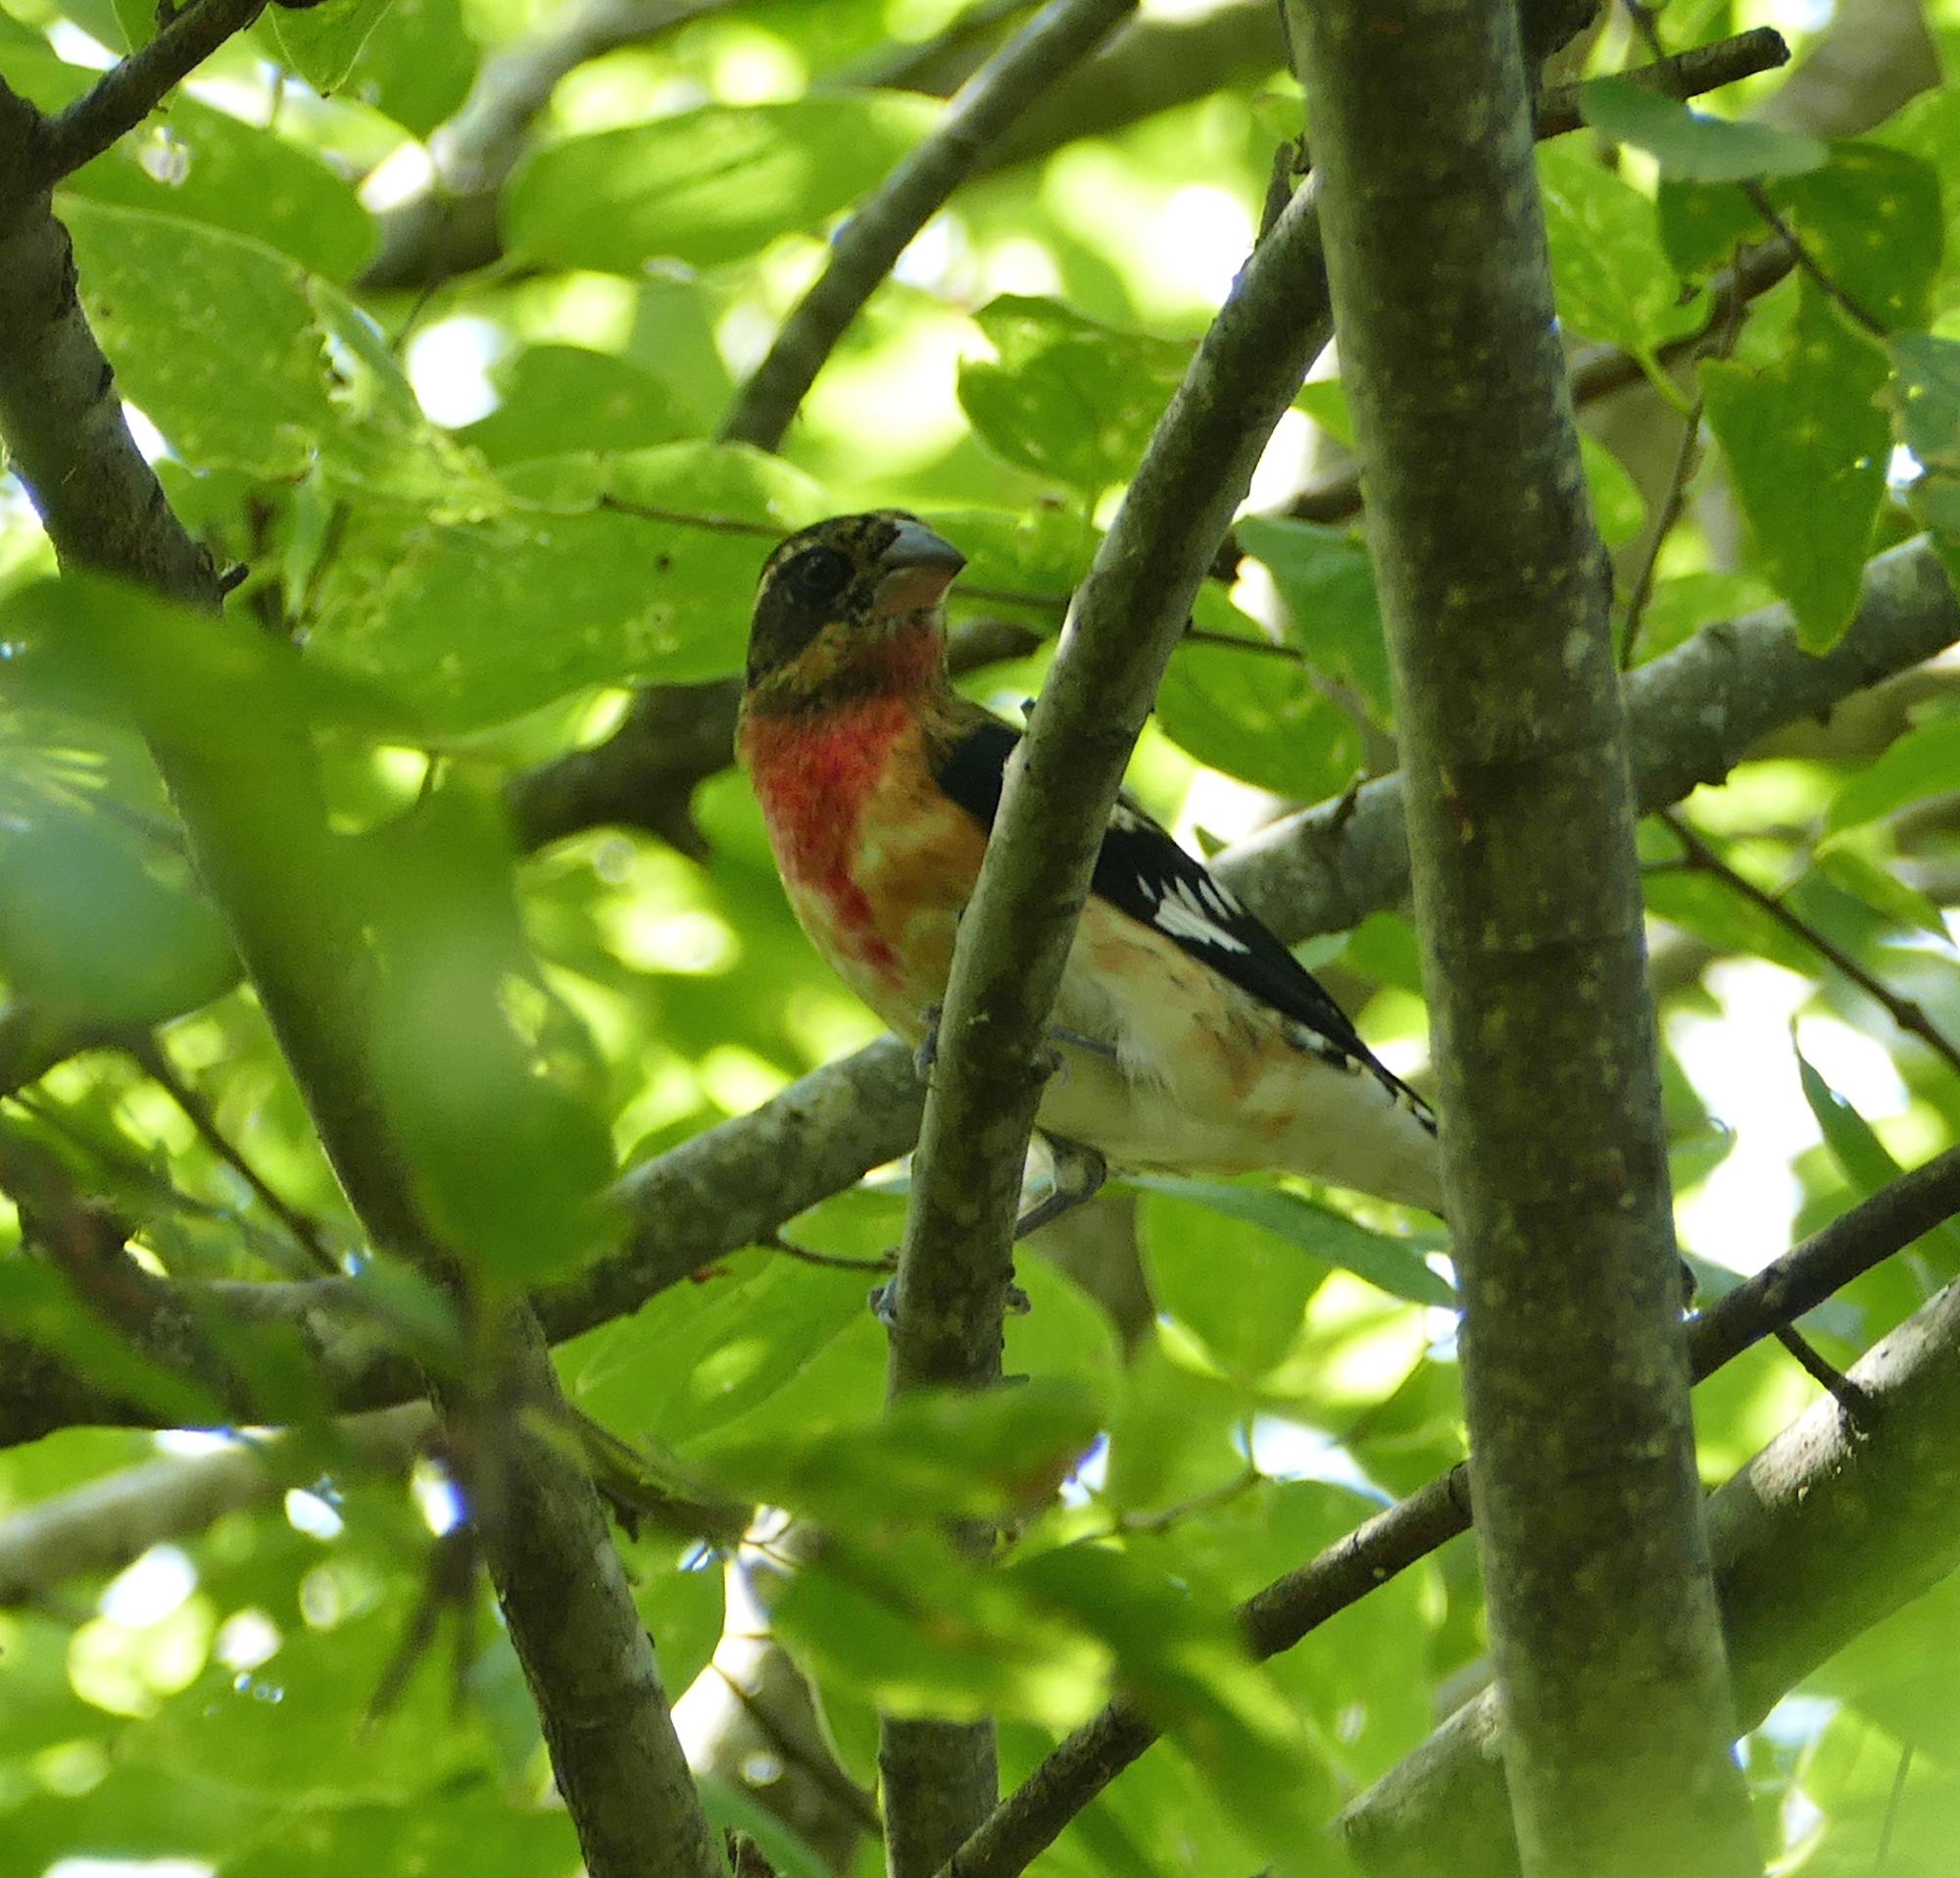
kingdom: Animalia
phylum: Chordata
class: Aves
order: Passeriformes
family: Cardinalidae
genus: Pheucticus
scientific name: Pheucticus ludovicianus
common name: Rose-breasted grosbeak
